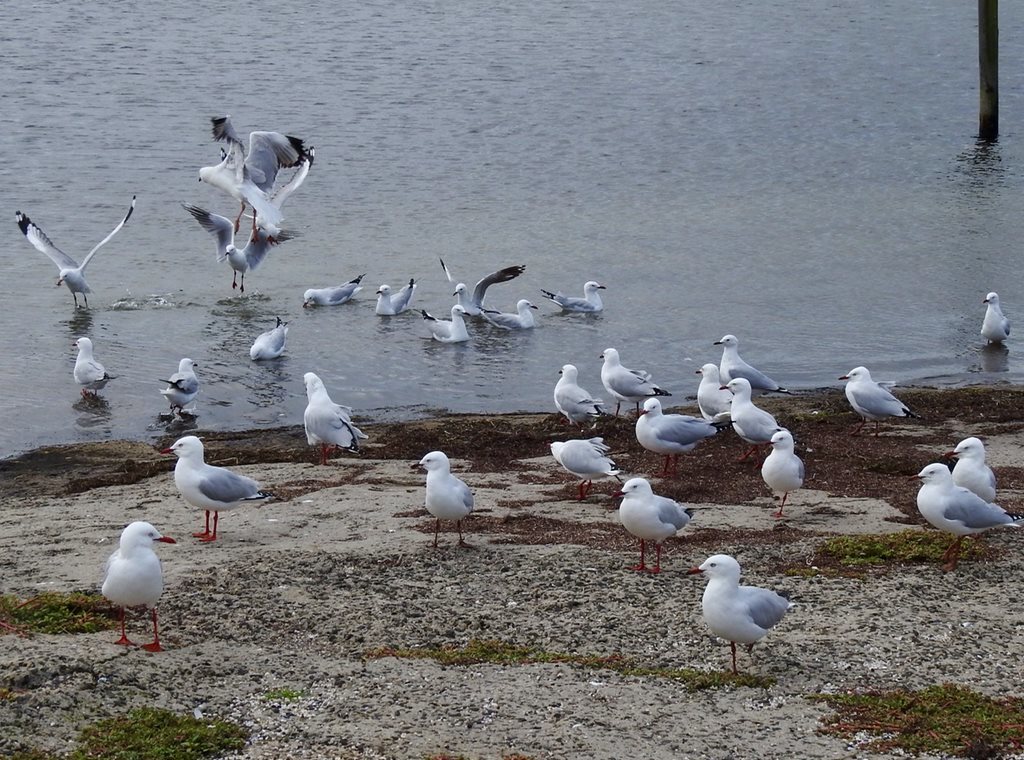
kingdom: Animalia
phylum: Chordata
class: Aves
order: Charadriiformes
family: Laridae
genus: Chroicocephalus
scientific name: Chroicocephalus novaehollandiae
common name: Silver gull
